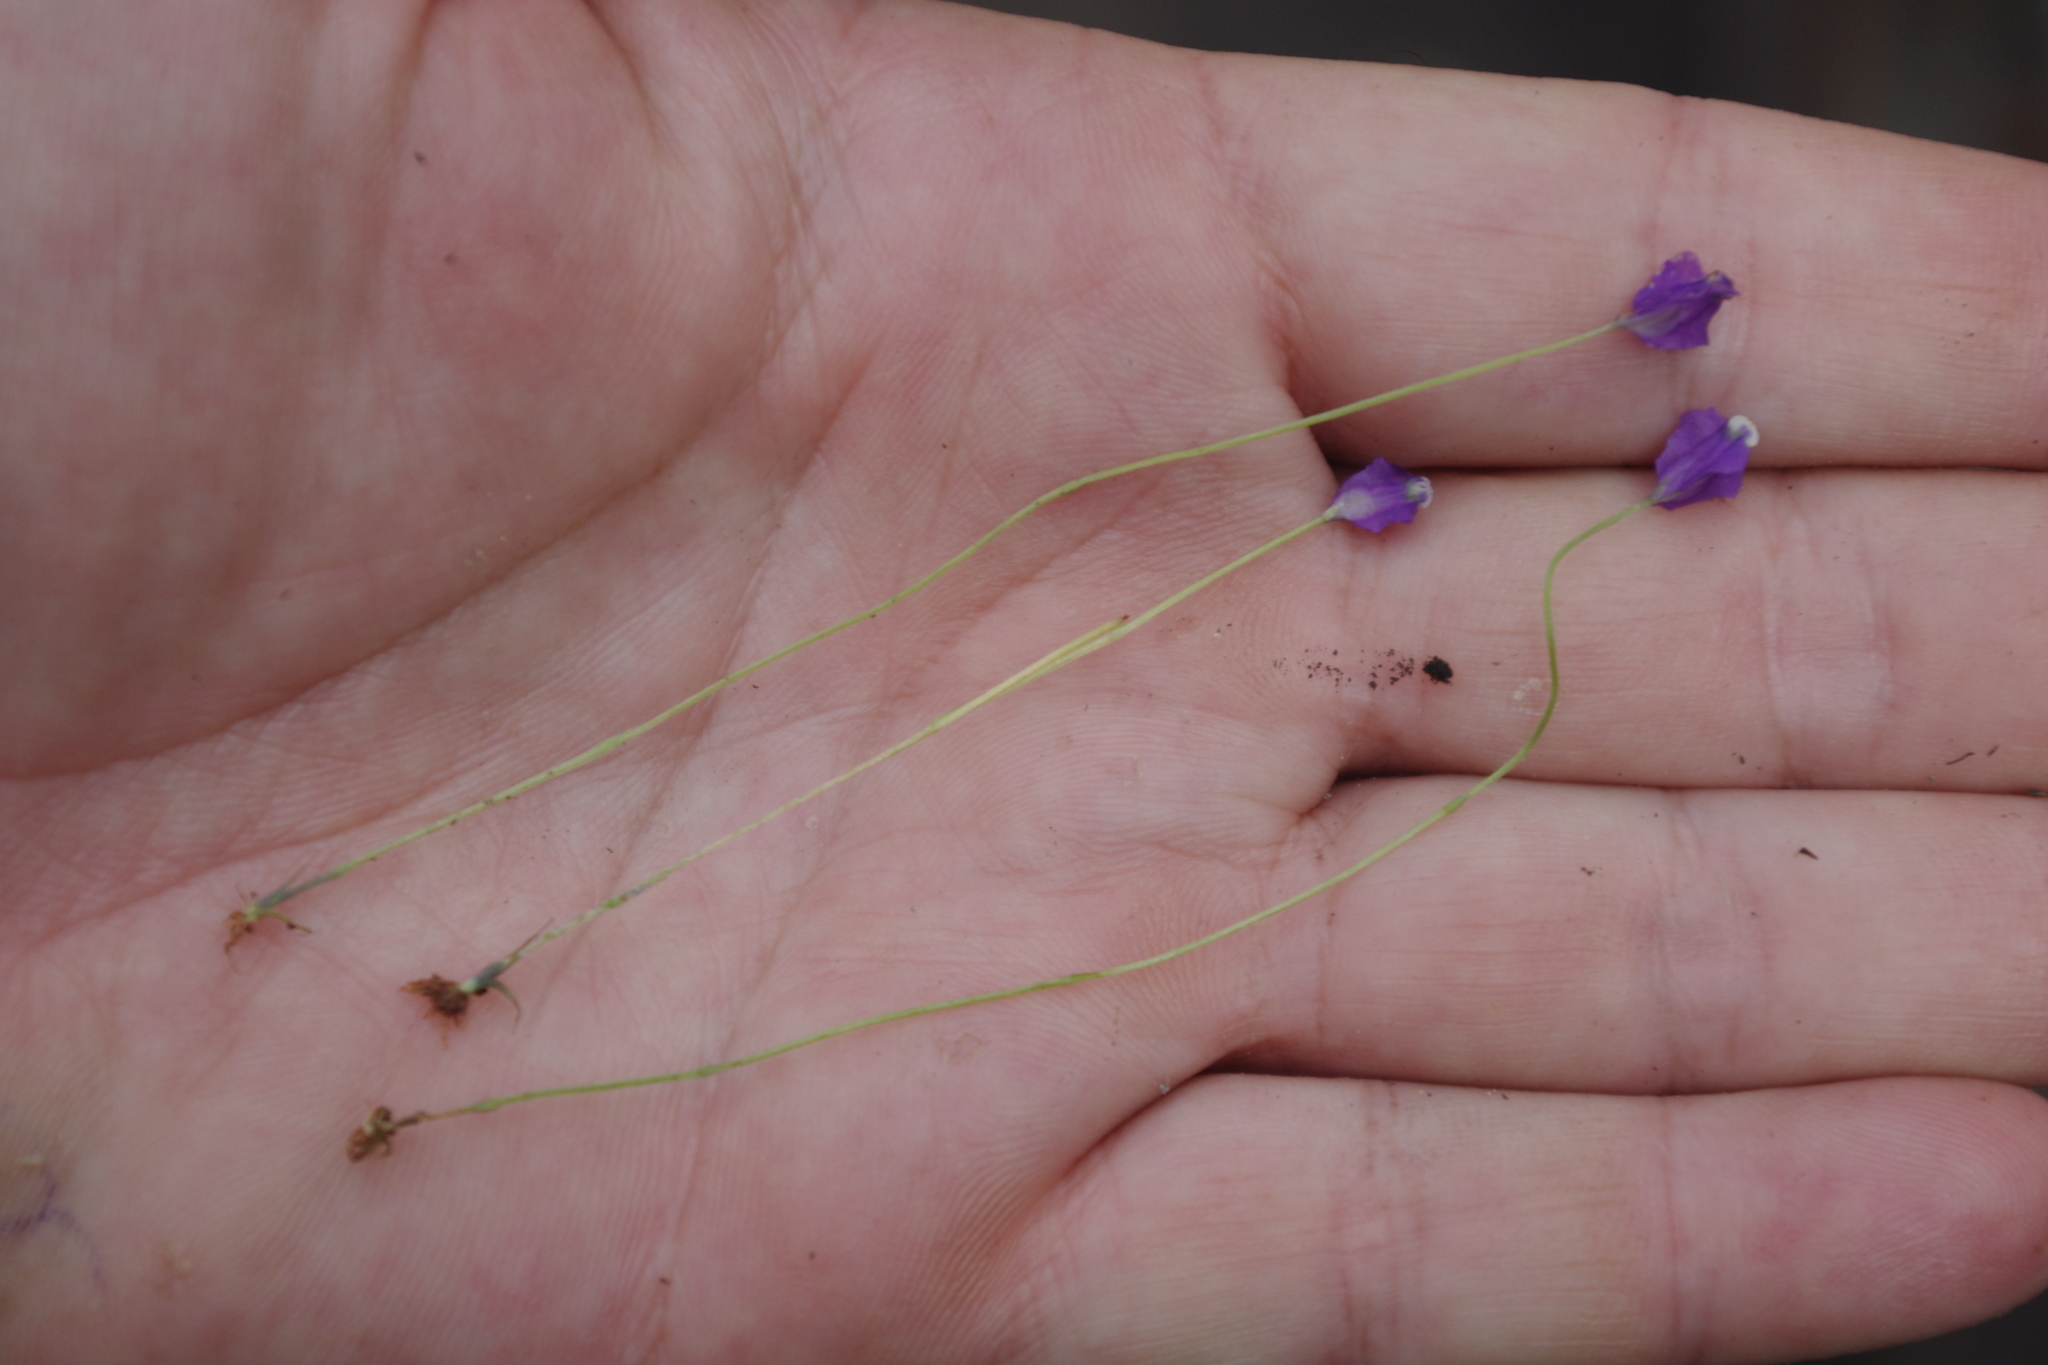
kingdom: Plantae
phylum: Tracheophyta
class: Liliopsida
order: Dioscoreales
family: Burmanniaceae
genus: Burmannia
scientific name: Burmannia coelestis
